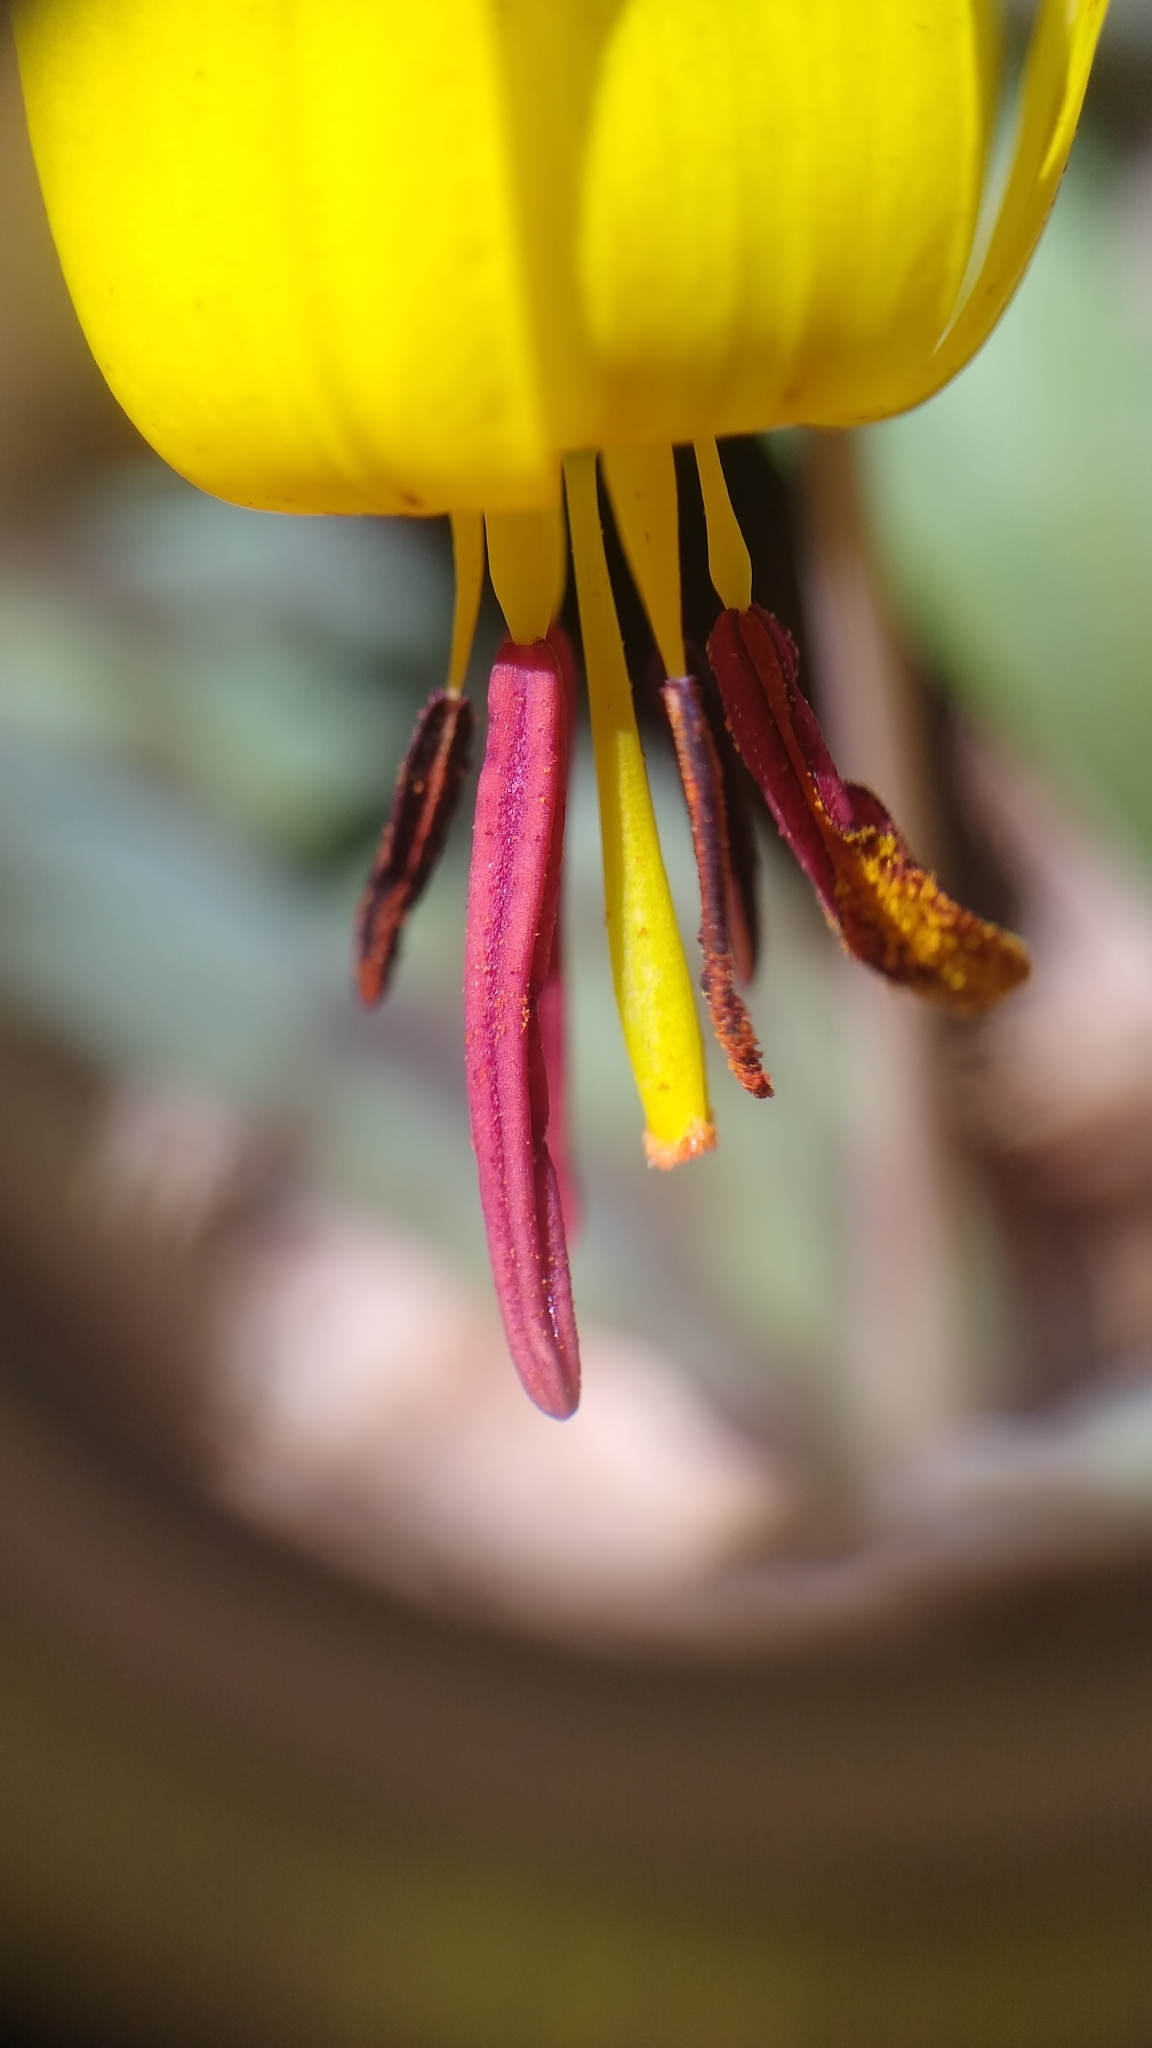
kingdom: Plantae
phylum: Tracheophyta
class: Liliopsida
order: Liliales
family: Liliaceae
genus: Erythronium
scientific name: Erythronium americanum
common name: Yellow adder's-tongue
